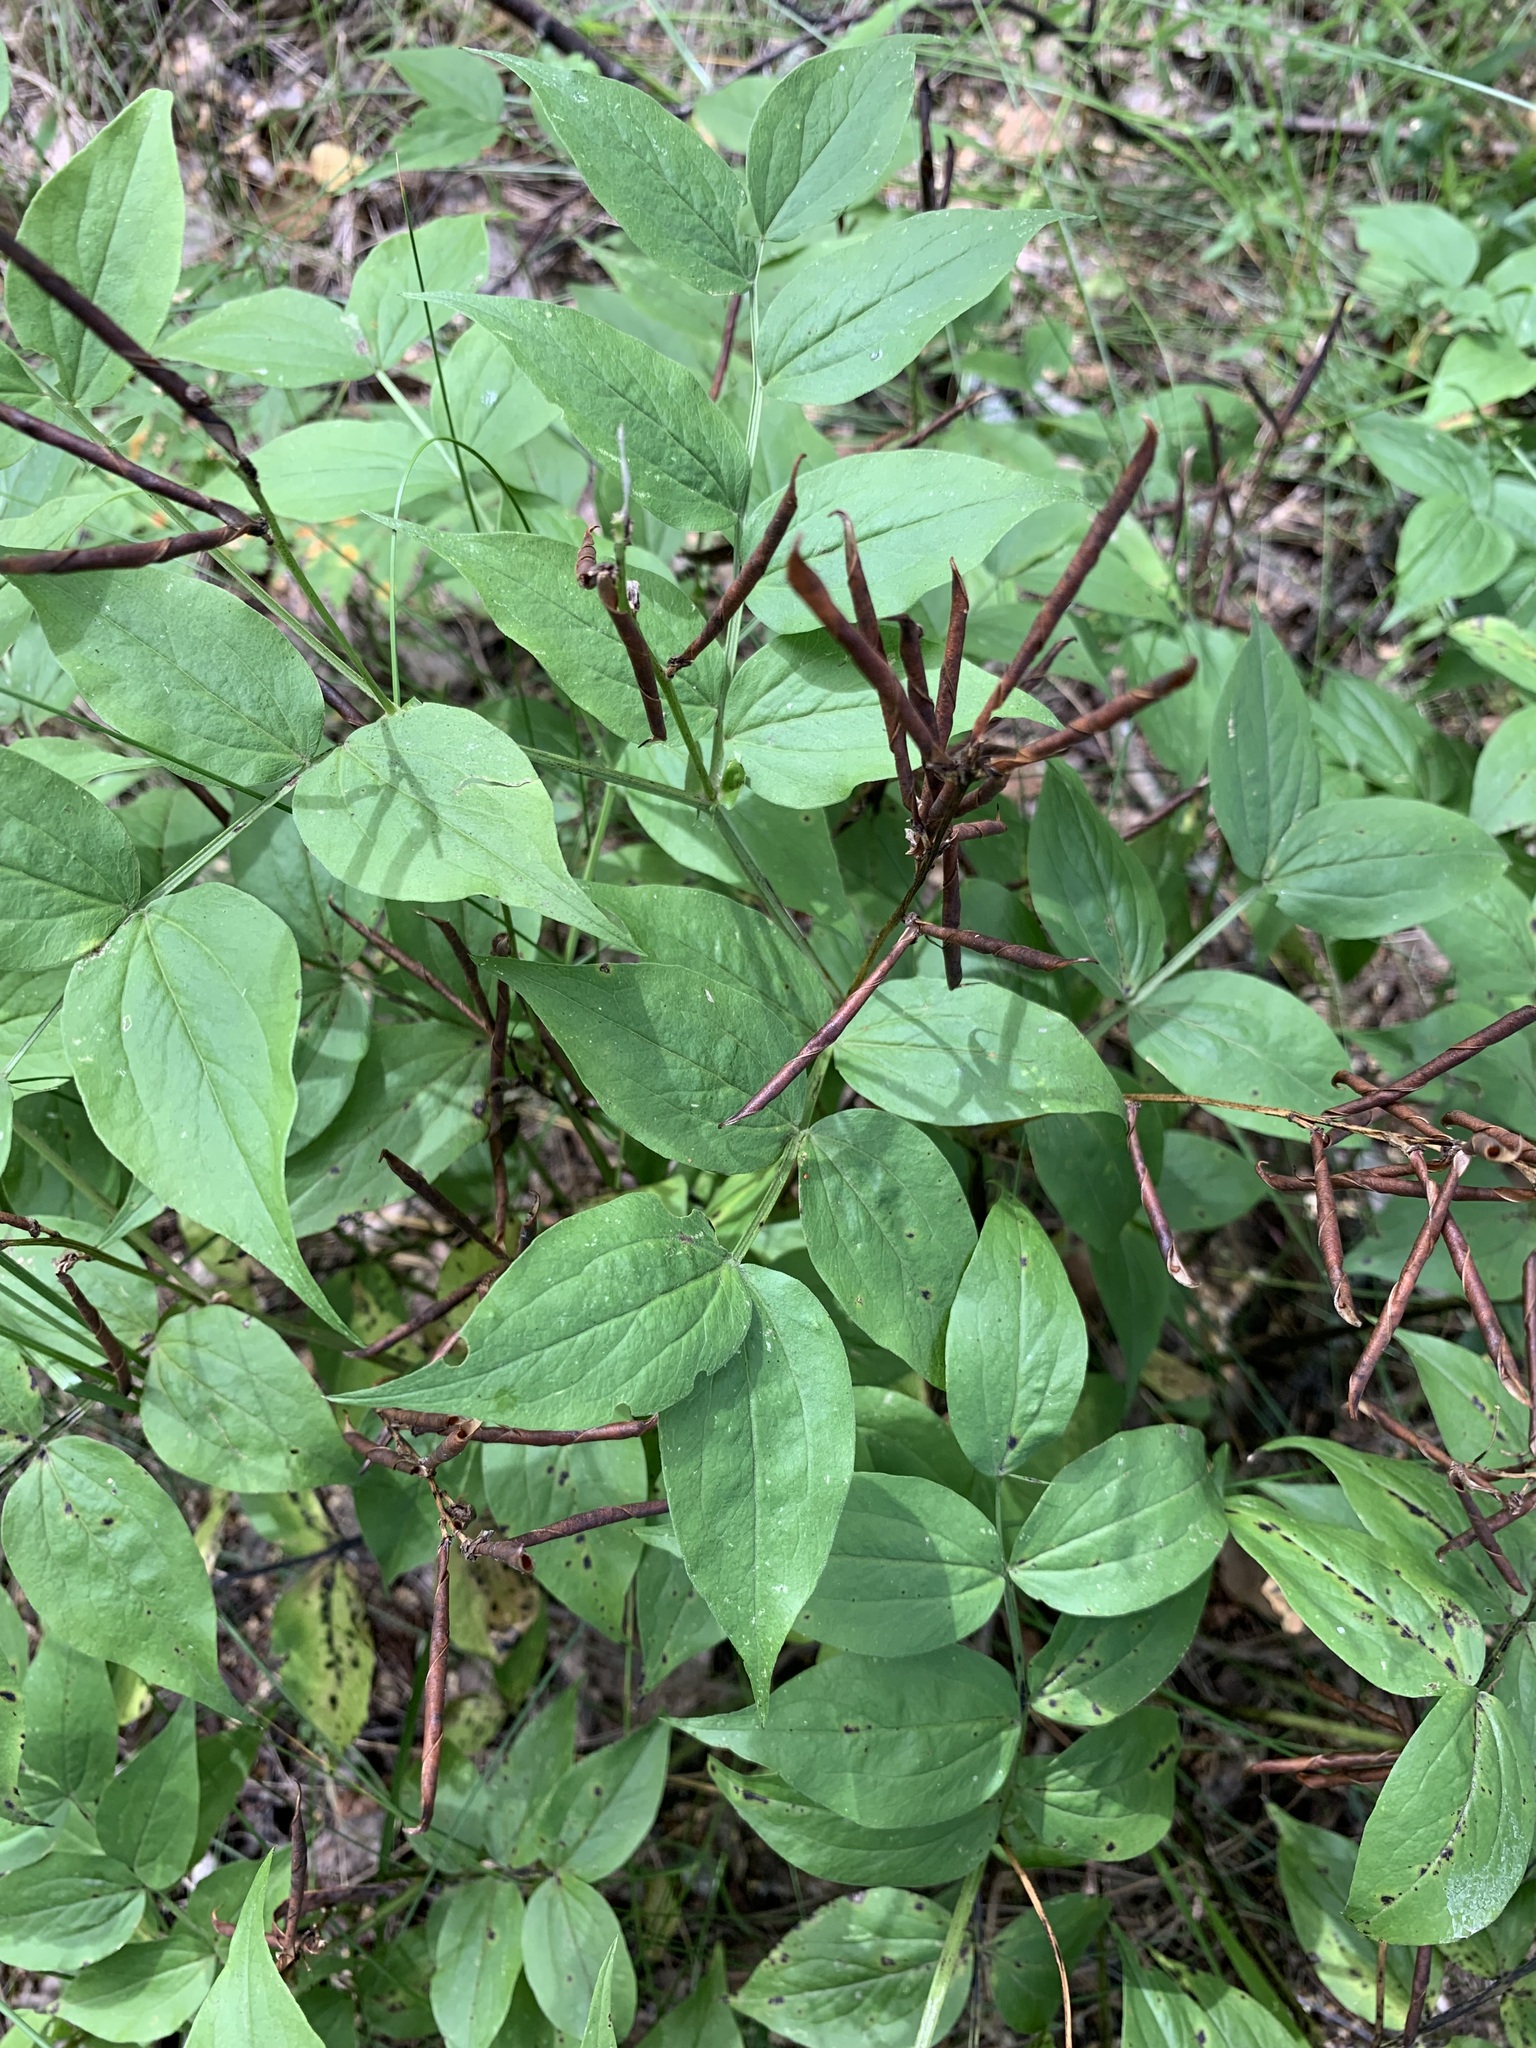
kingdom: Plantae
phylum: Tracheophyta
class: Magnoliopsida
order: Fabales
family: Fabaceae
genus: Lathyrus
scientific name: Lathyrus vernus
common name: Spring pea
